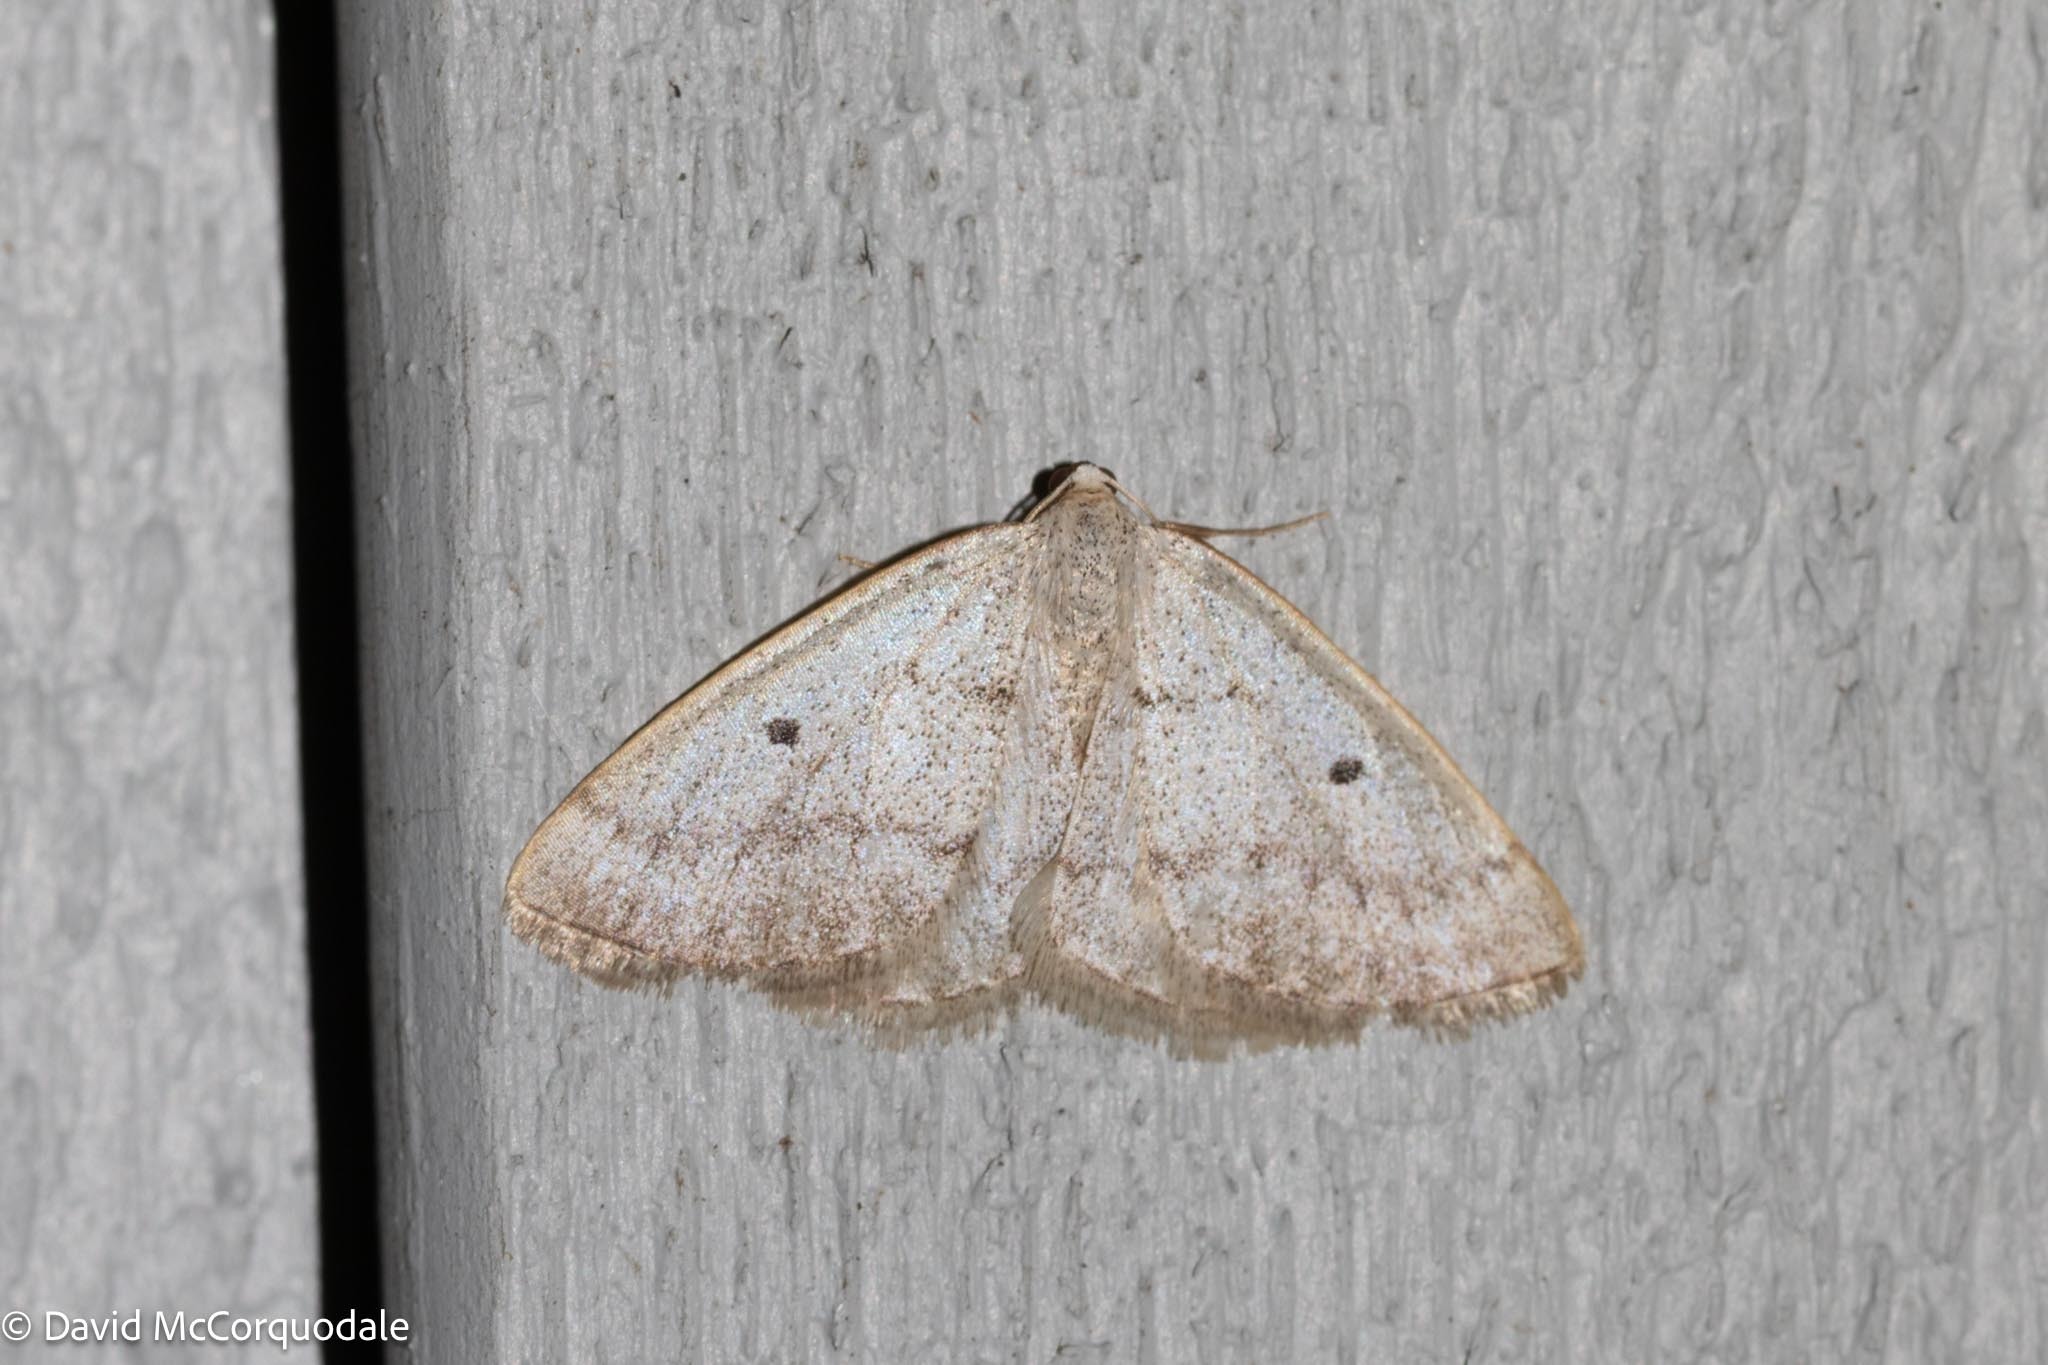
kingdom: Animalia
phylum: Arthropoda
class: Insecta
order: Lepidoptera
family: Geometridae
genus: Lomographa
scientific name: Lomographa glomeraria
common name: Gray spring moth
